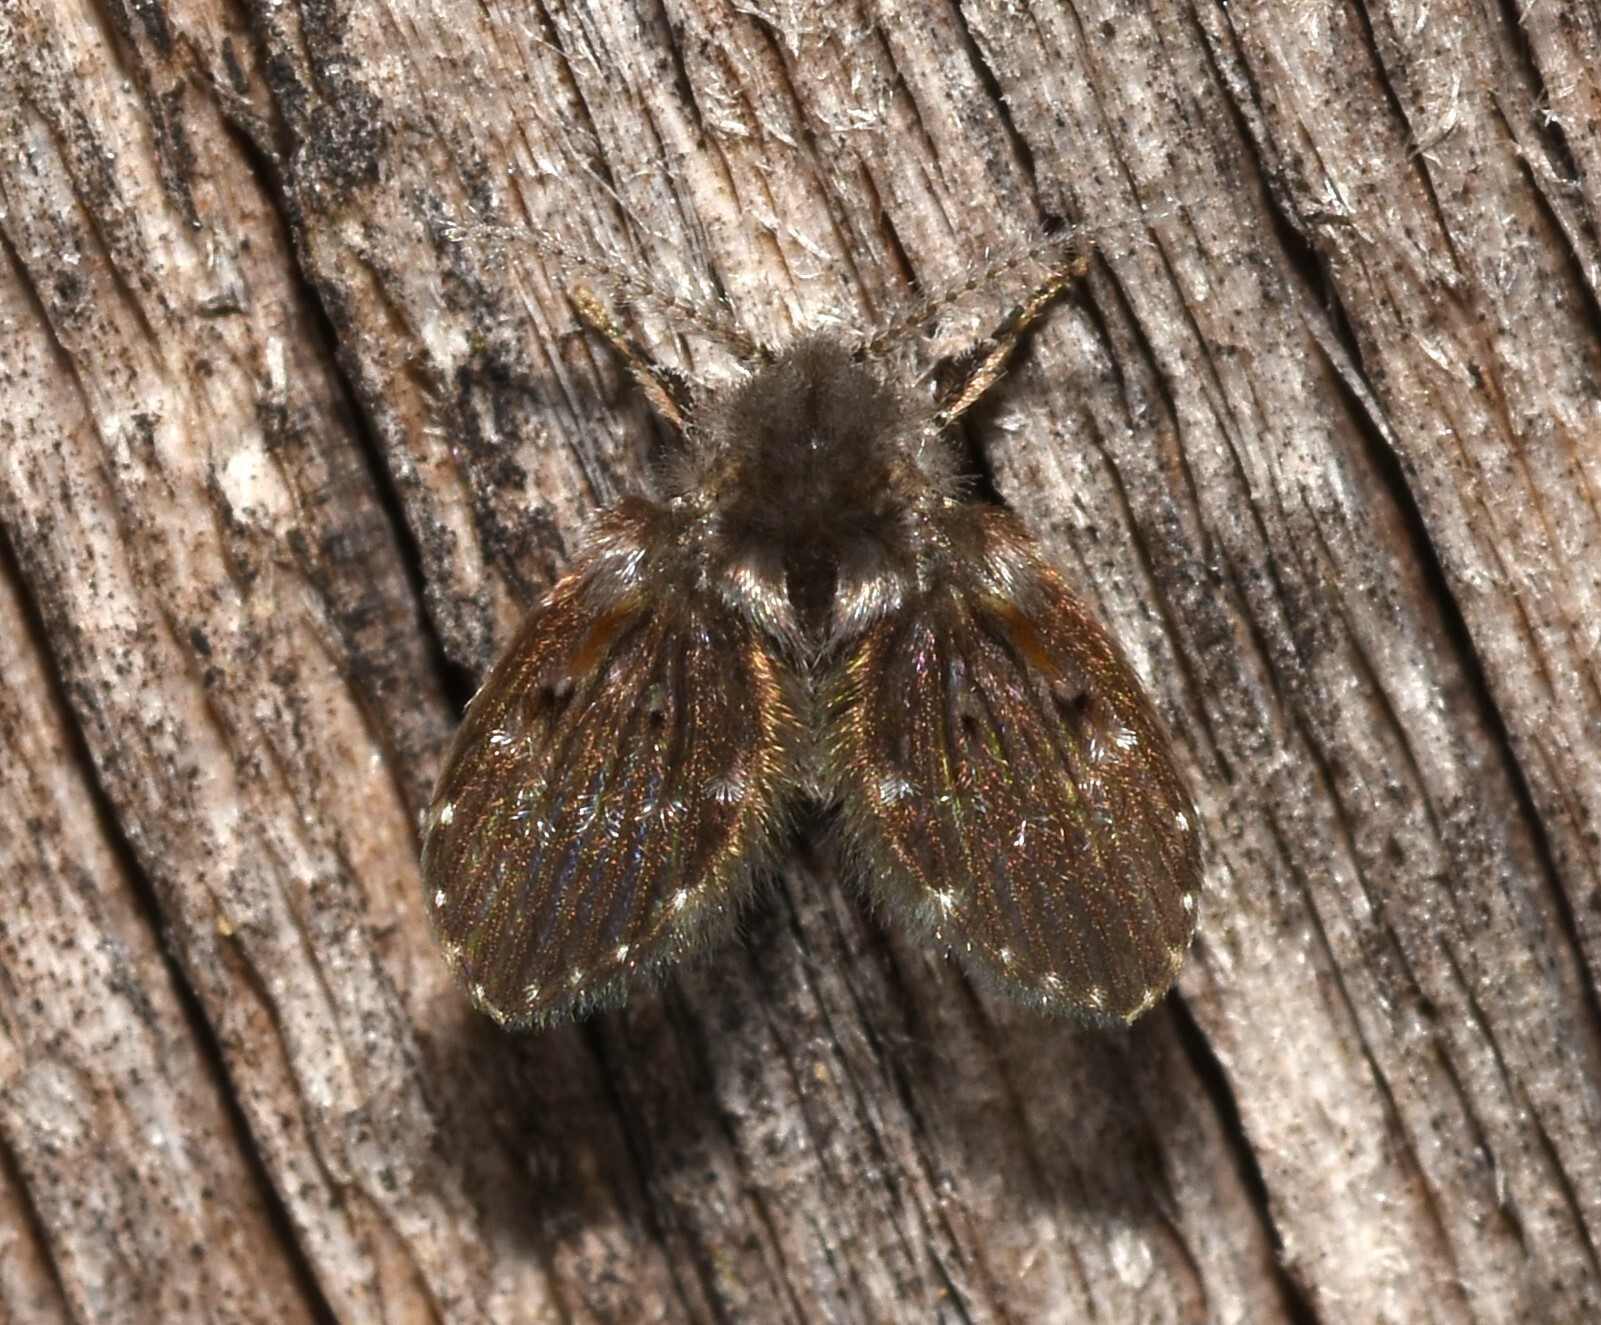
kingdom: Animalia
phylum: Arthropoda
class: Insecta
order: Diptera
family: Psychodidae
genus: Clogmia
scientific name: Clogmia albipunctatus
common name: White-spotted moth fly
